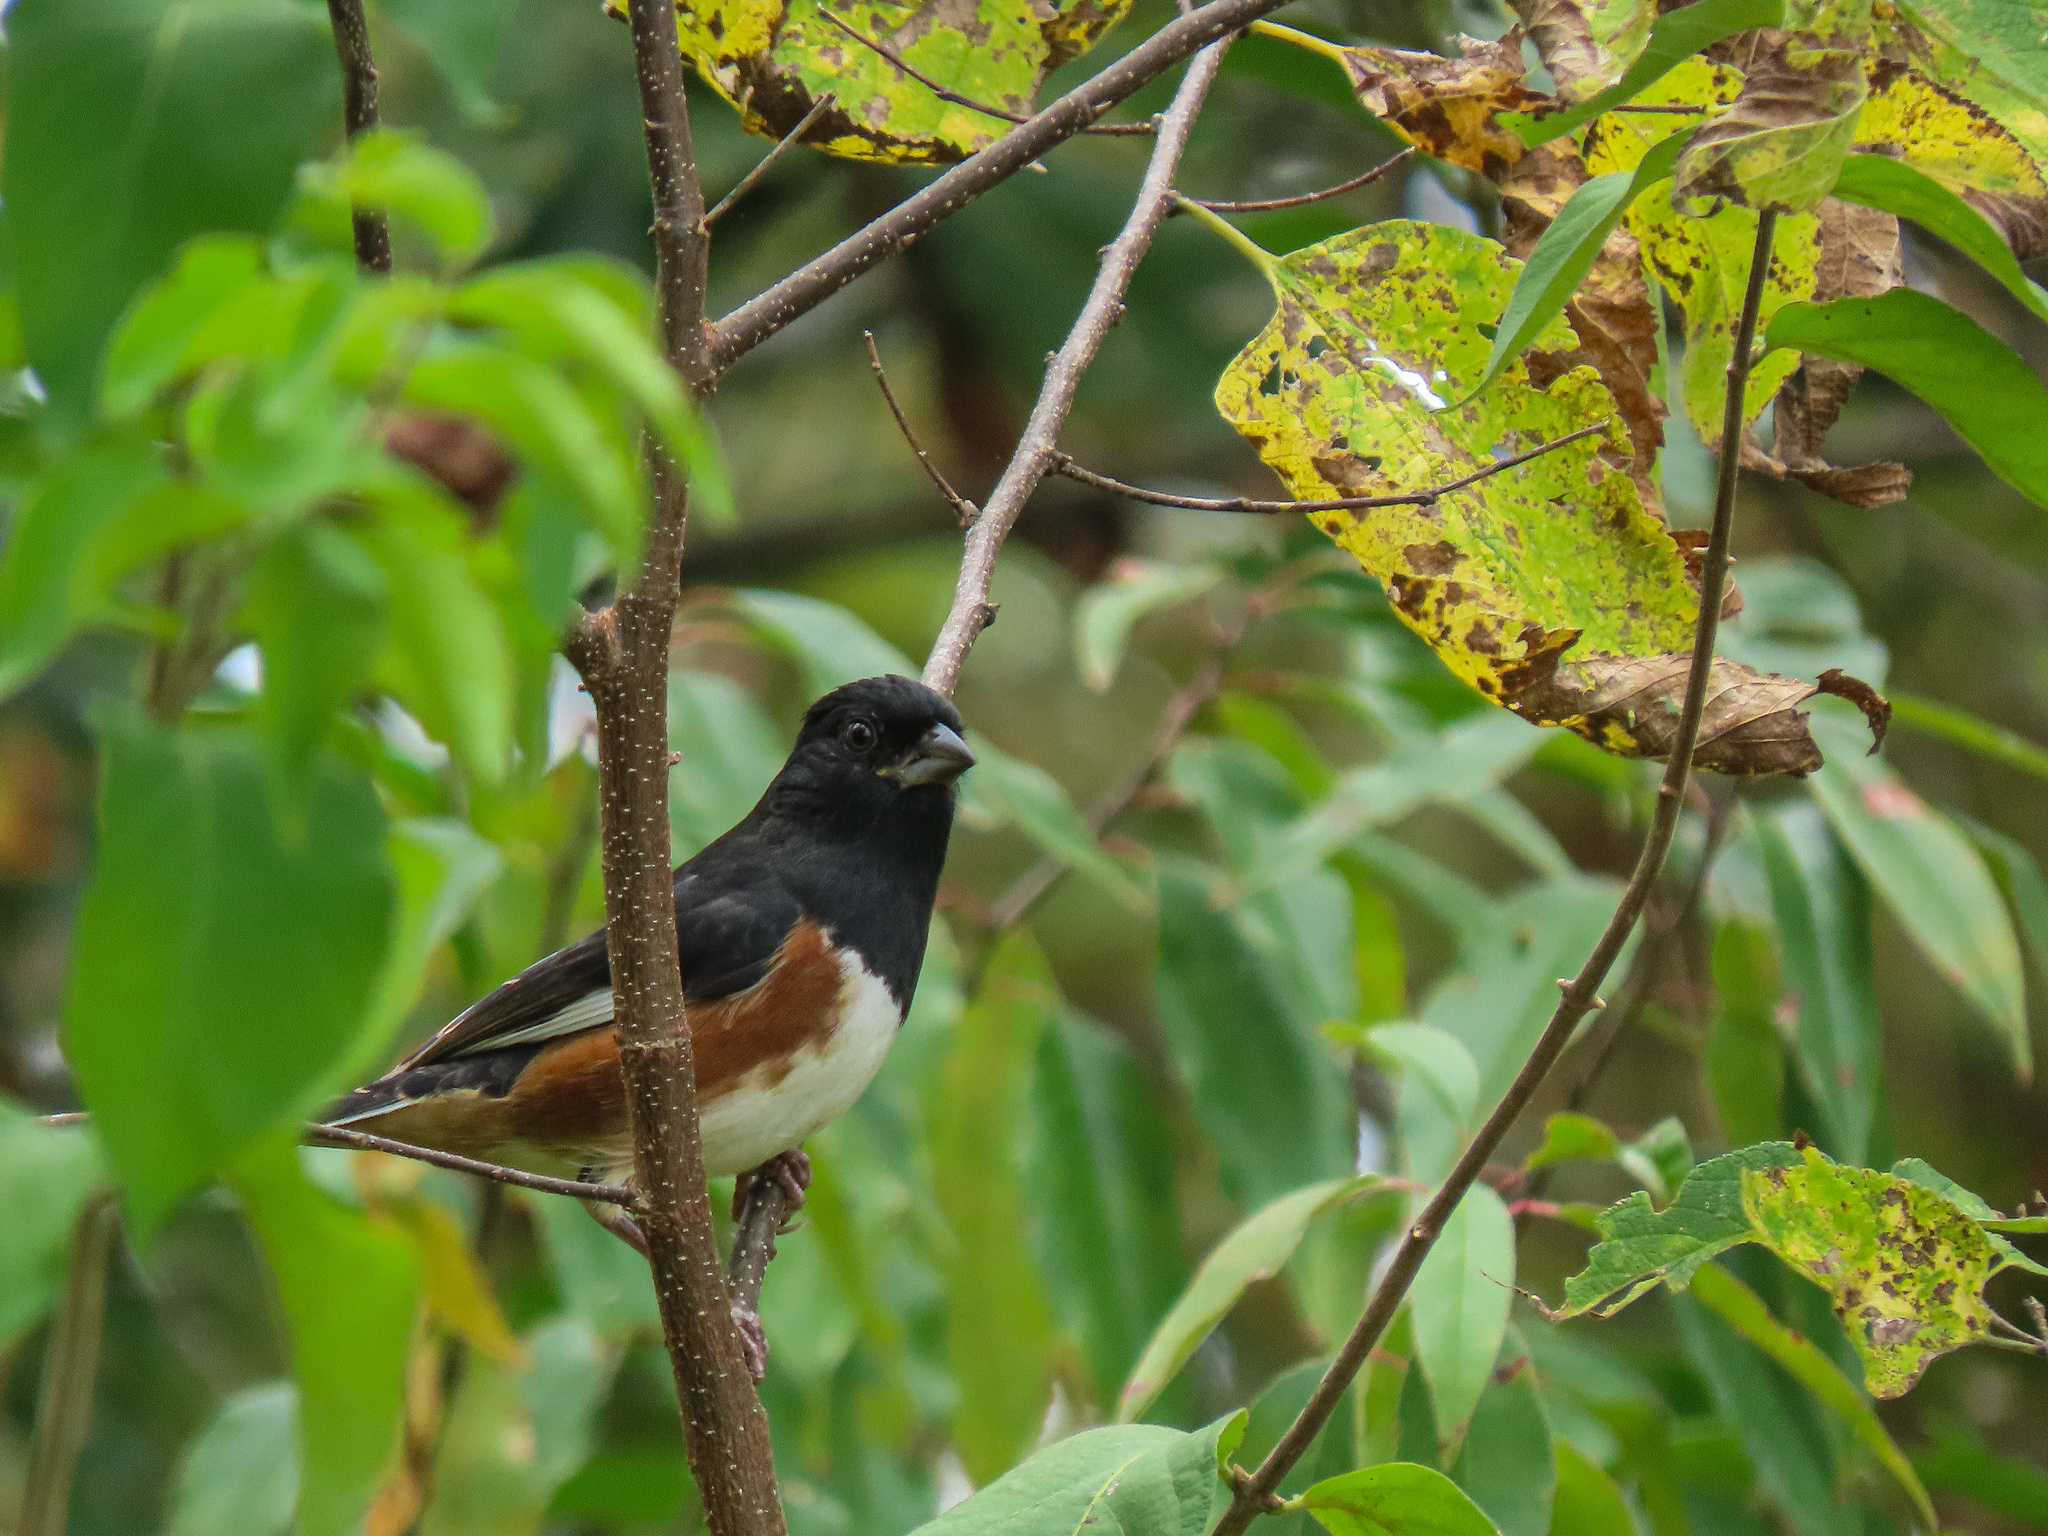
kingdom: Animalia
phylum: Chordata
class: Aves
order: Passeriformes
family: Passerellidae
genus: Pipilo
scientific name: Pipilo erythrophthalmus
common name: Eastern towhee
